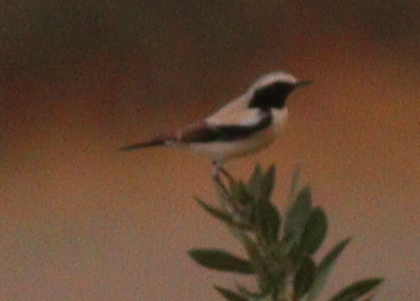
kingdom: Animalia
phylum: Chordata
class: Aves
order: Passeriformes
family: Muscicapidae
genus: Oenanthe
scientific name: Oenanthe deserti
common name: Desert wheatear
